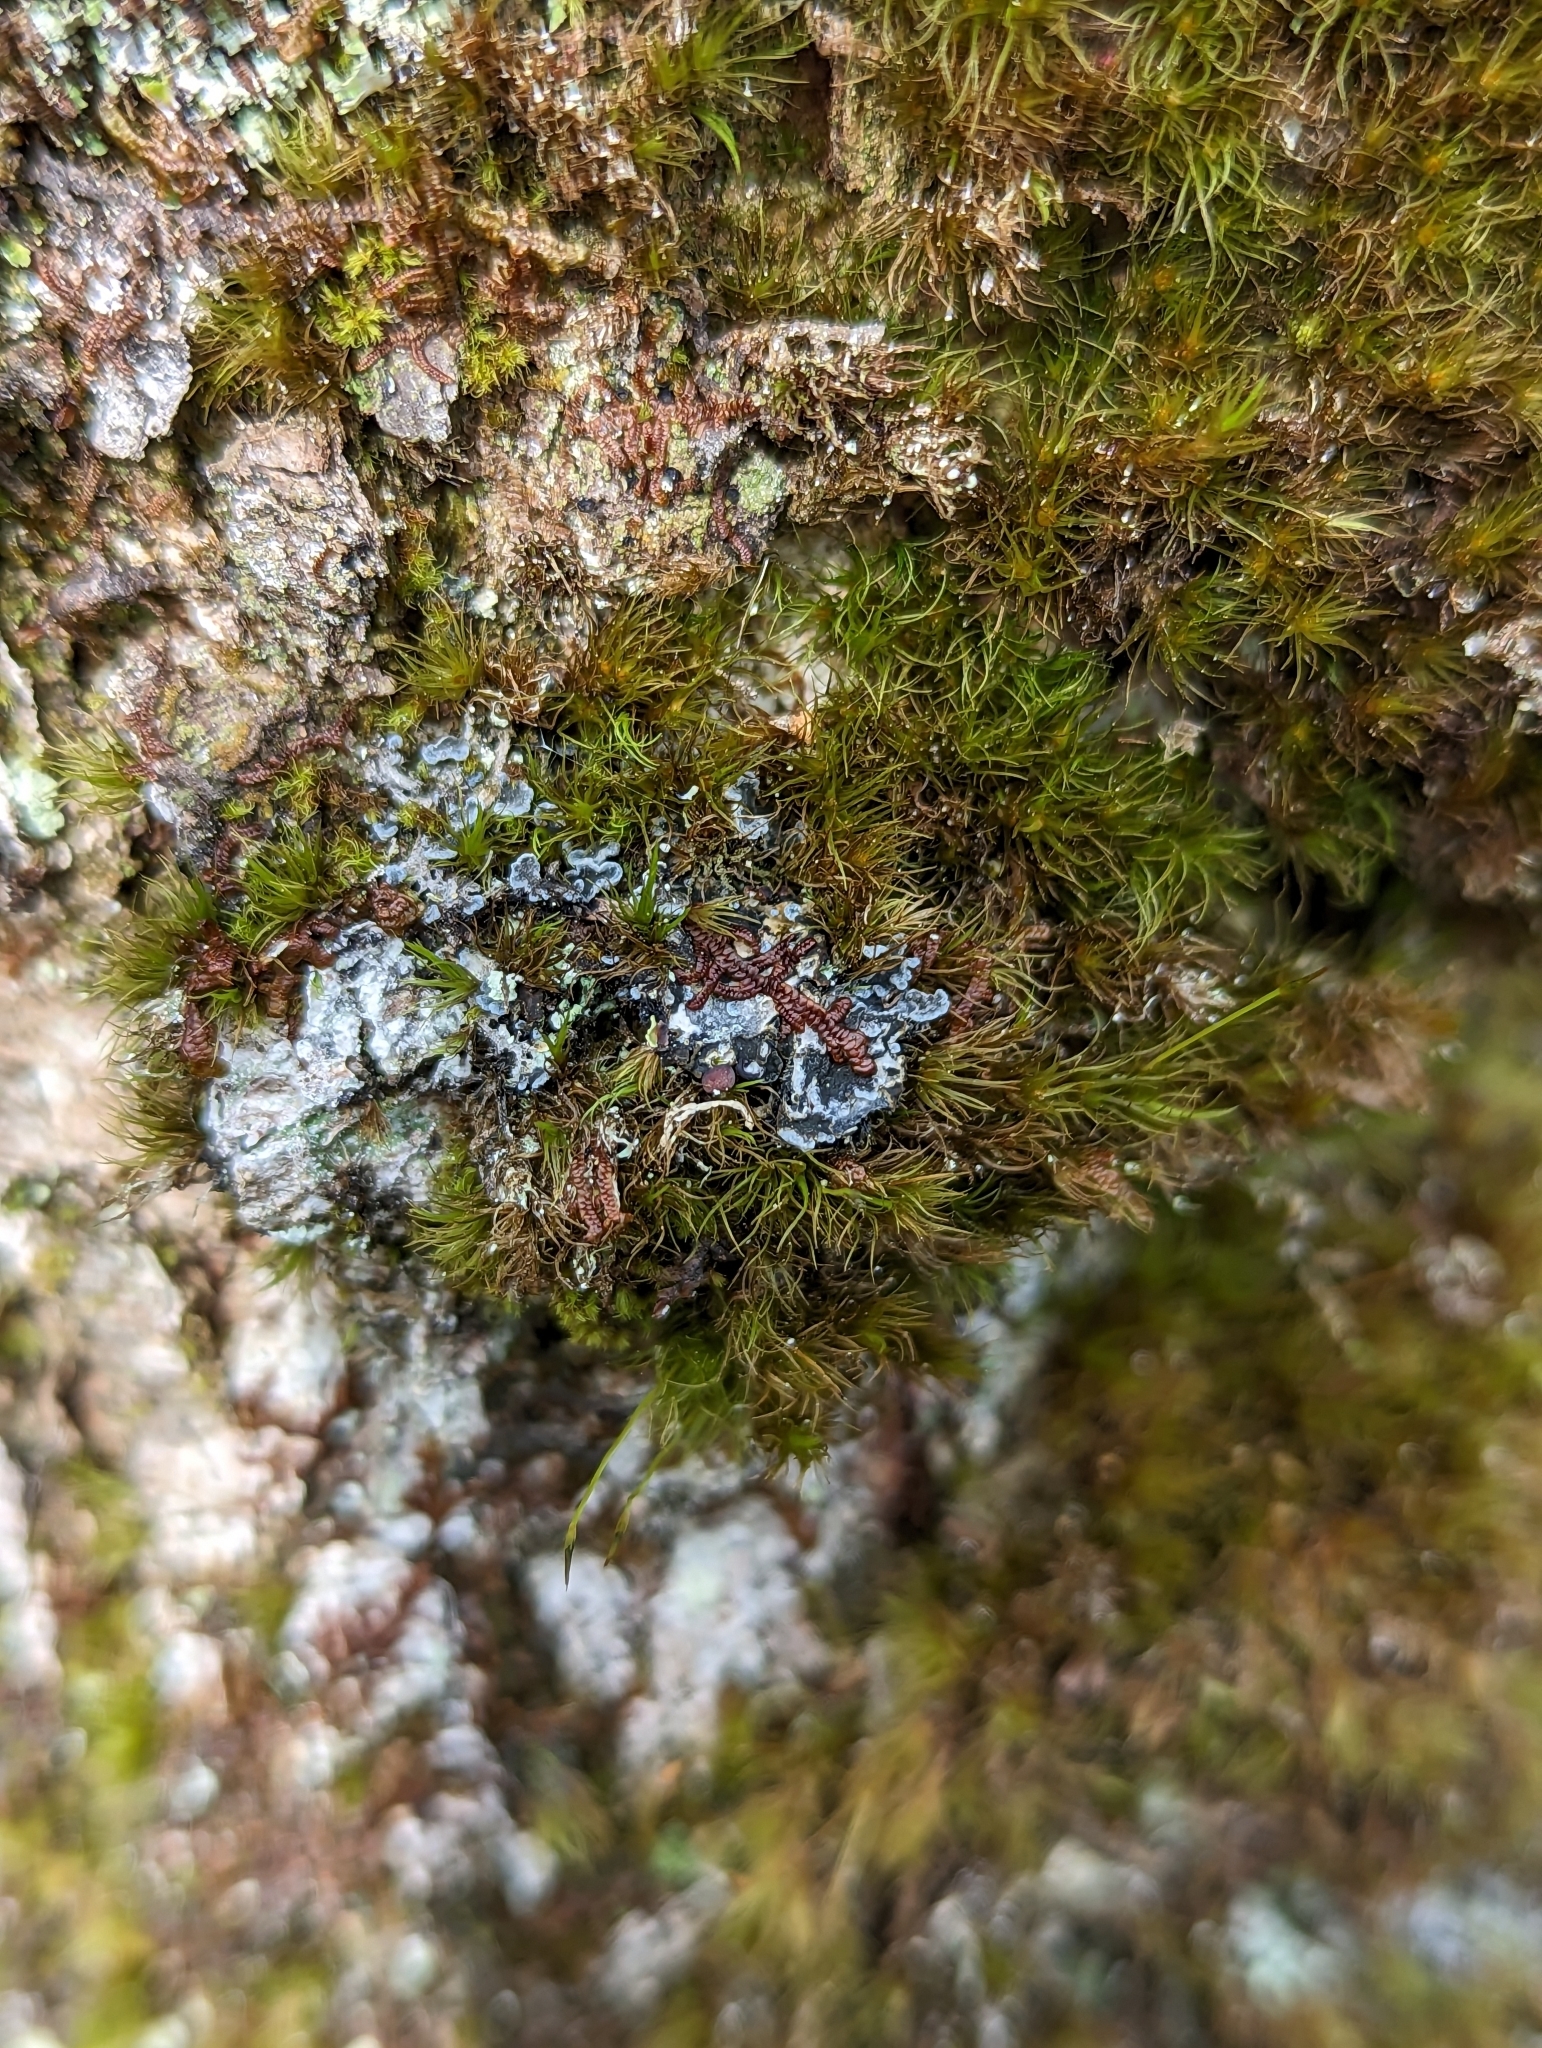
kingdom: Fungi
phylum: Ascomycota
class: Lecanoromycetes
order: Peltigerales
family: Pannariaceae
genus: Erioderma
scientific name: Erioderma pedicellatum
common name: Boreal felt lichen
